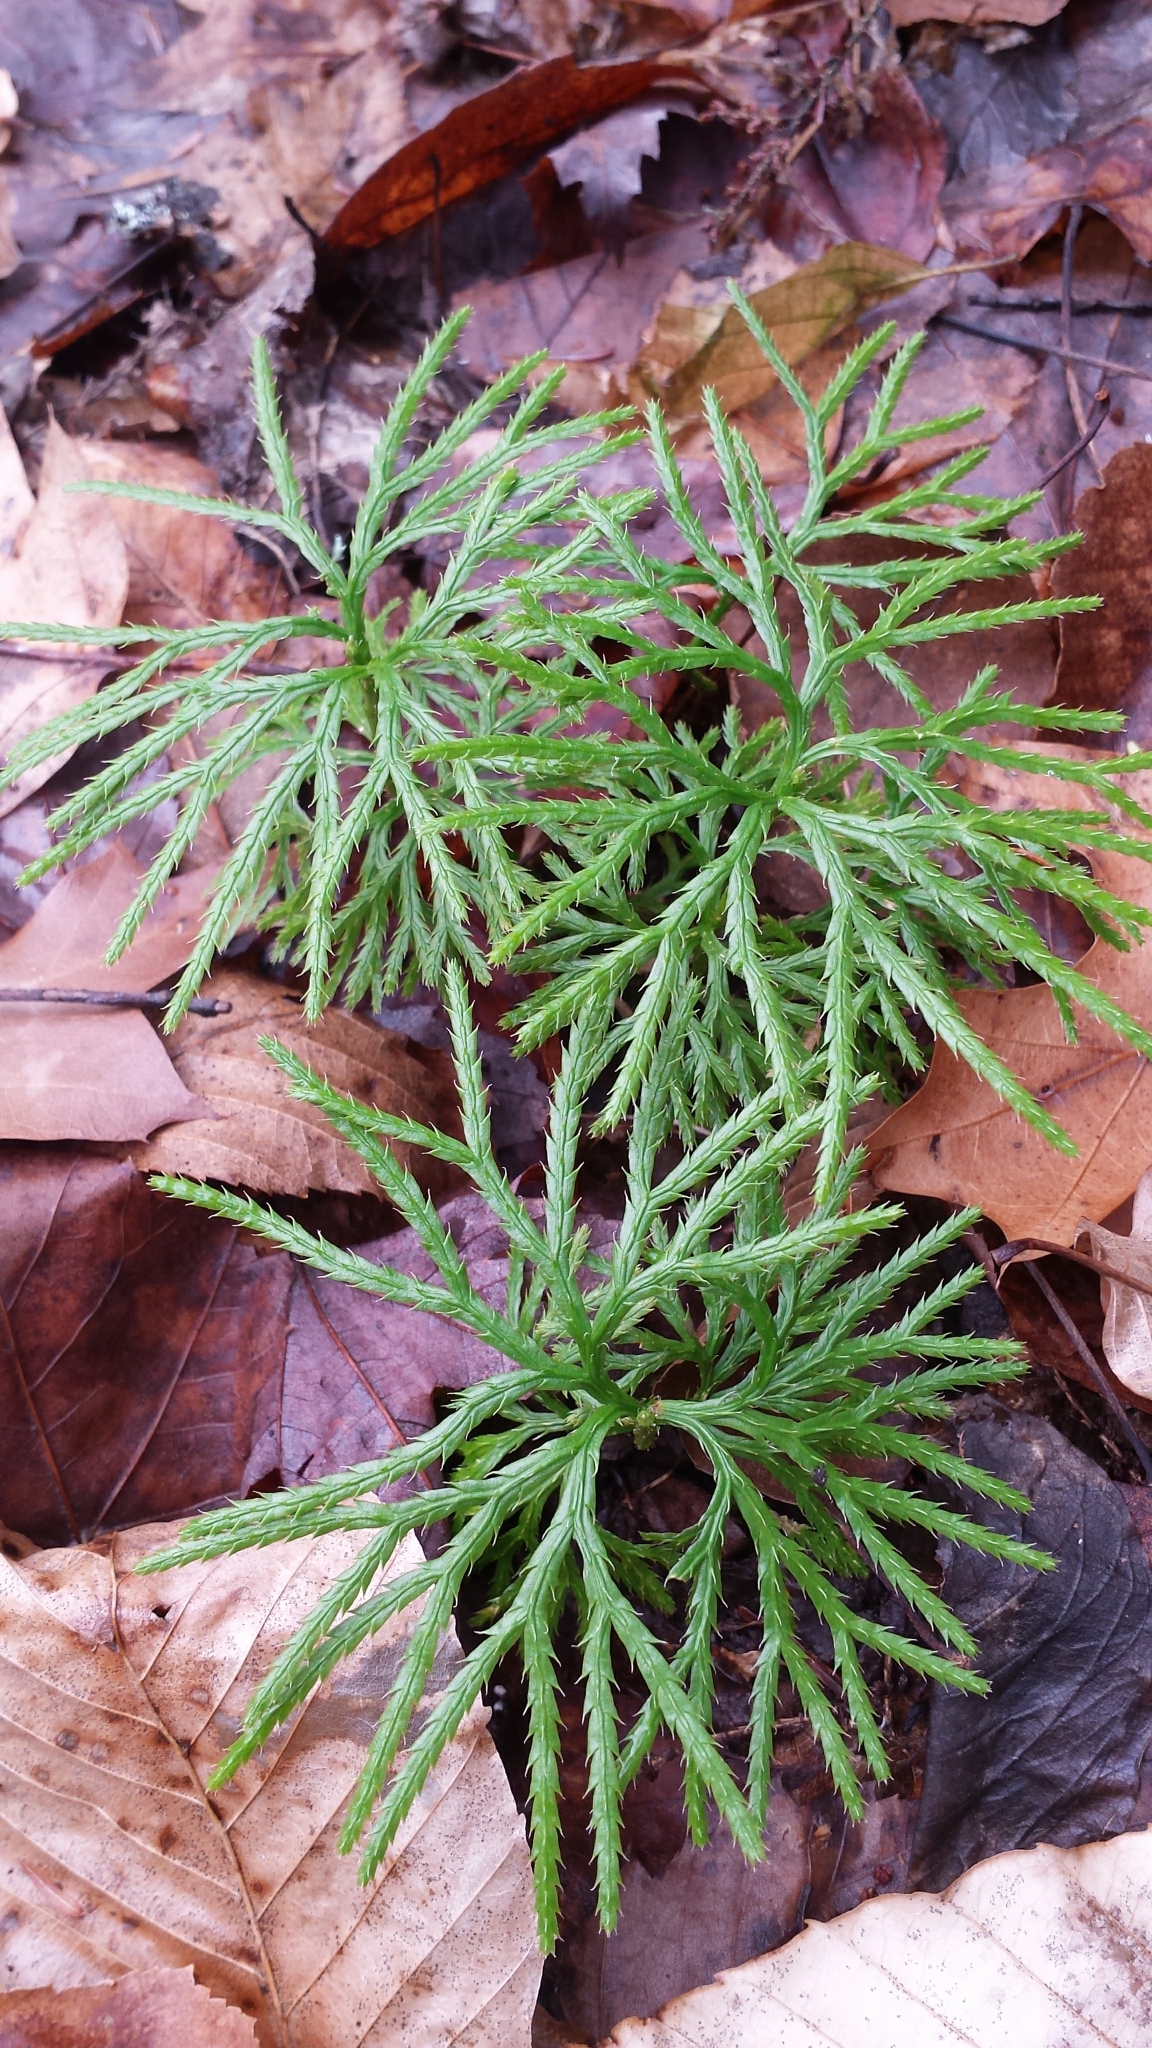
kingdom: Plantae
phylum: Tracheophyta
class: Lycopodiopsida
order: Lycopodiales
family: Lycopodiaceae
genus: Diphasiastrum
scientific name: Diphasiastrum digitatum
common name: Southern running-pine
